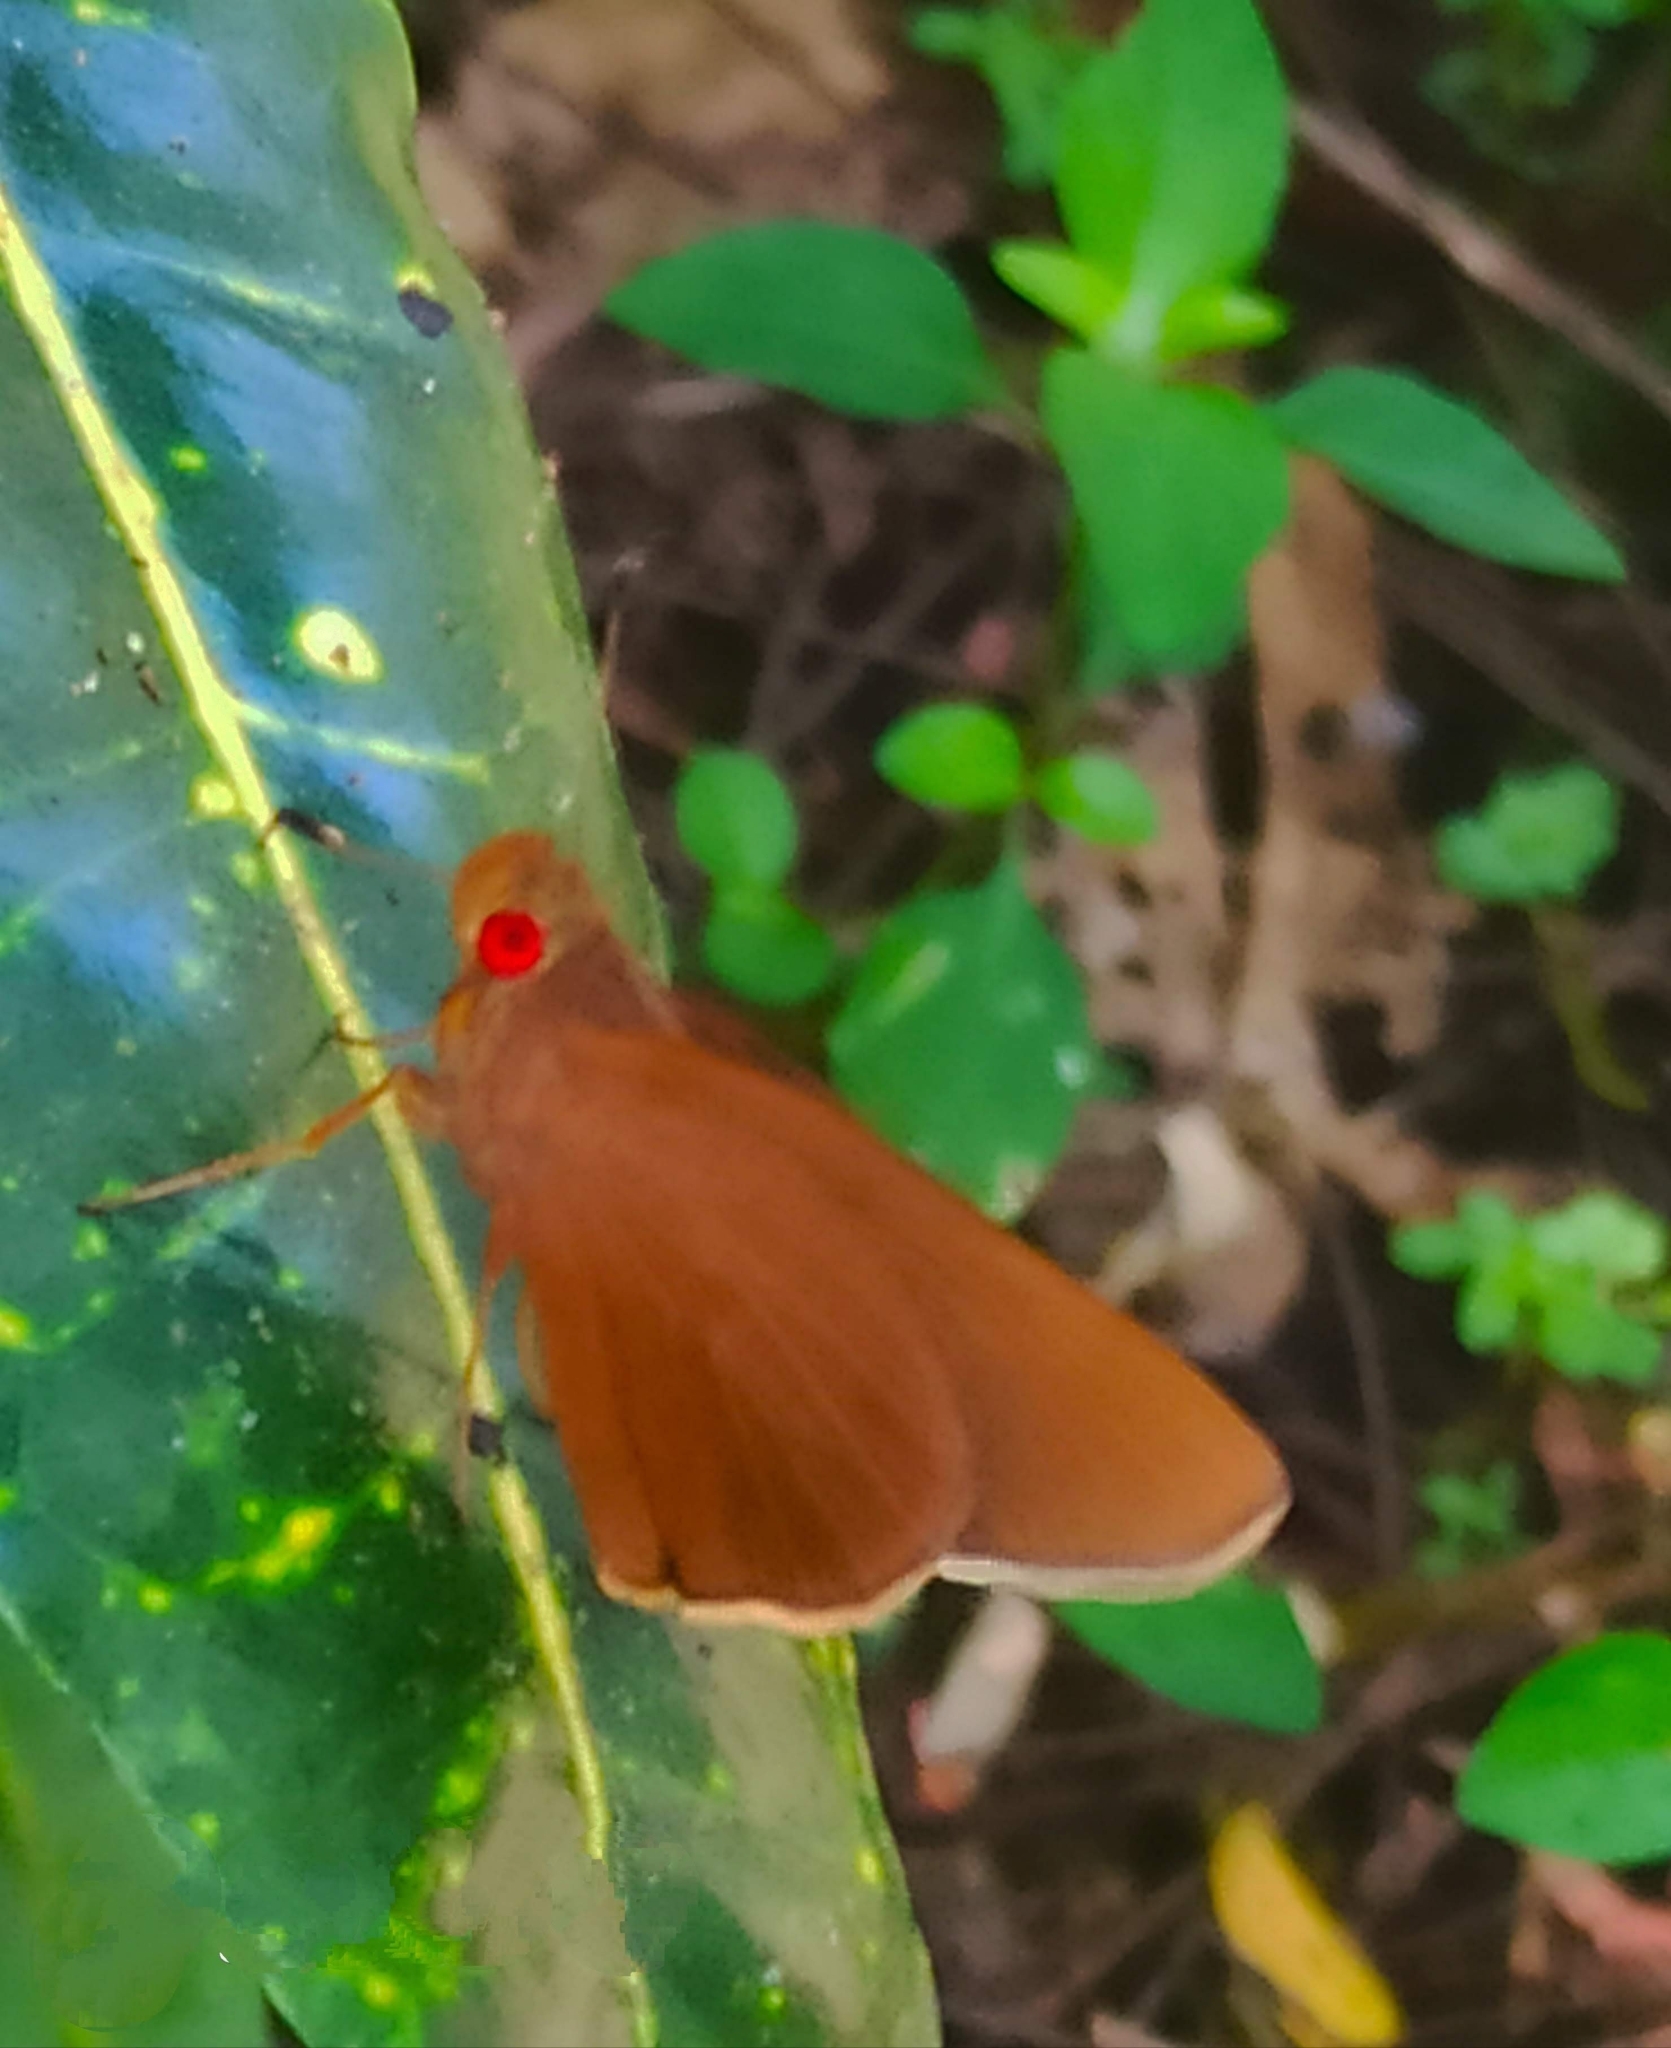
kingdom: Animalia
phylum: Arthropoda
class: Insecta
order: Lepidoptera
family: Hesperiidae
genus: Matapa
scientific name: Matapa aria
